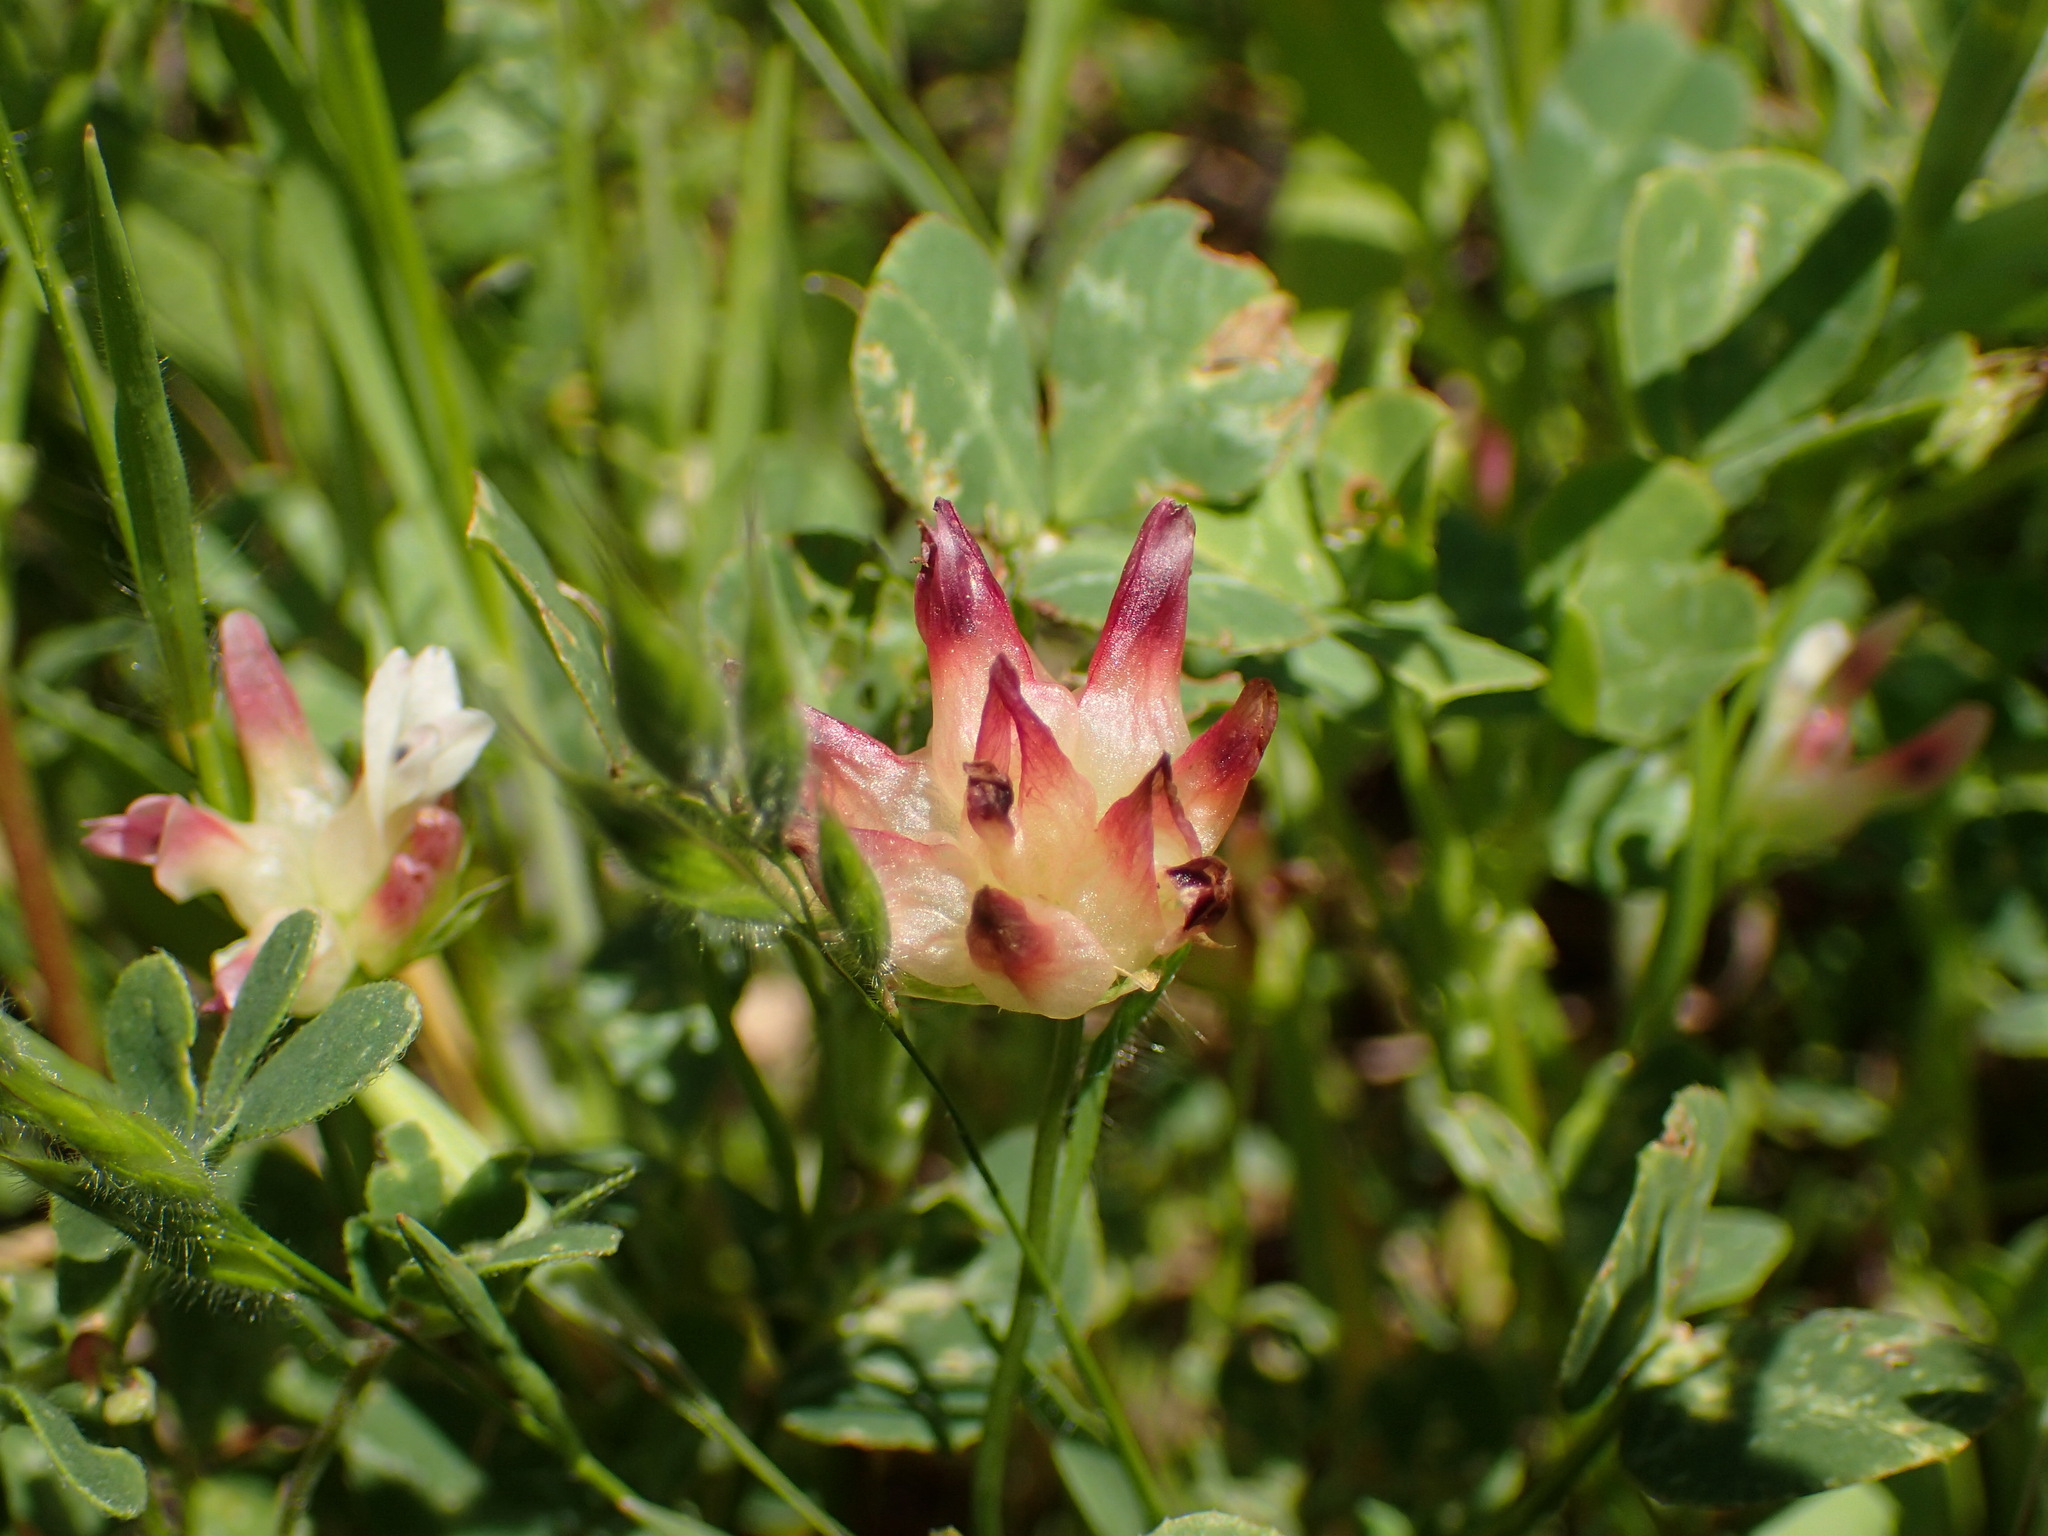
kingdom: Plantae
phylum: Tracheophyta
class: Magnoliopsida
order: Fabales
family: Fabaceae
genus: Trifolium
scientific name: Trifolium fucatum
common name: Puff clover
